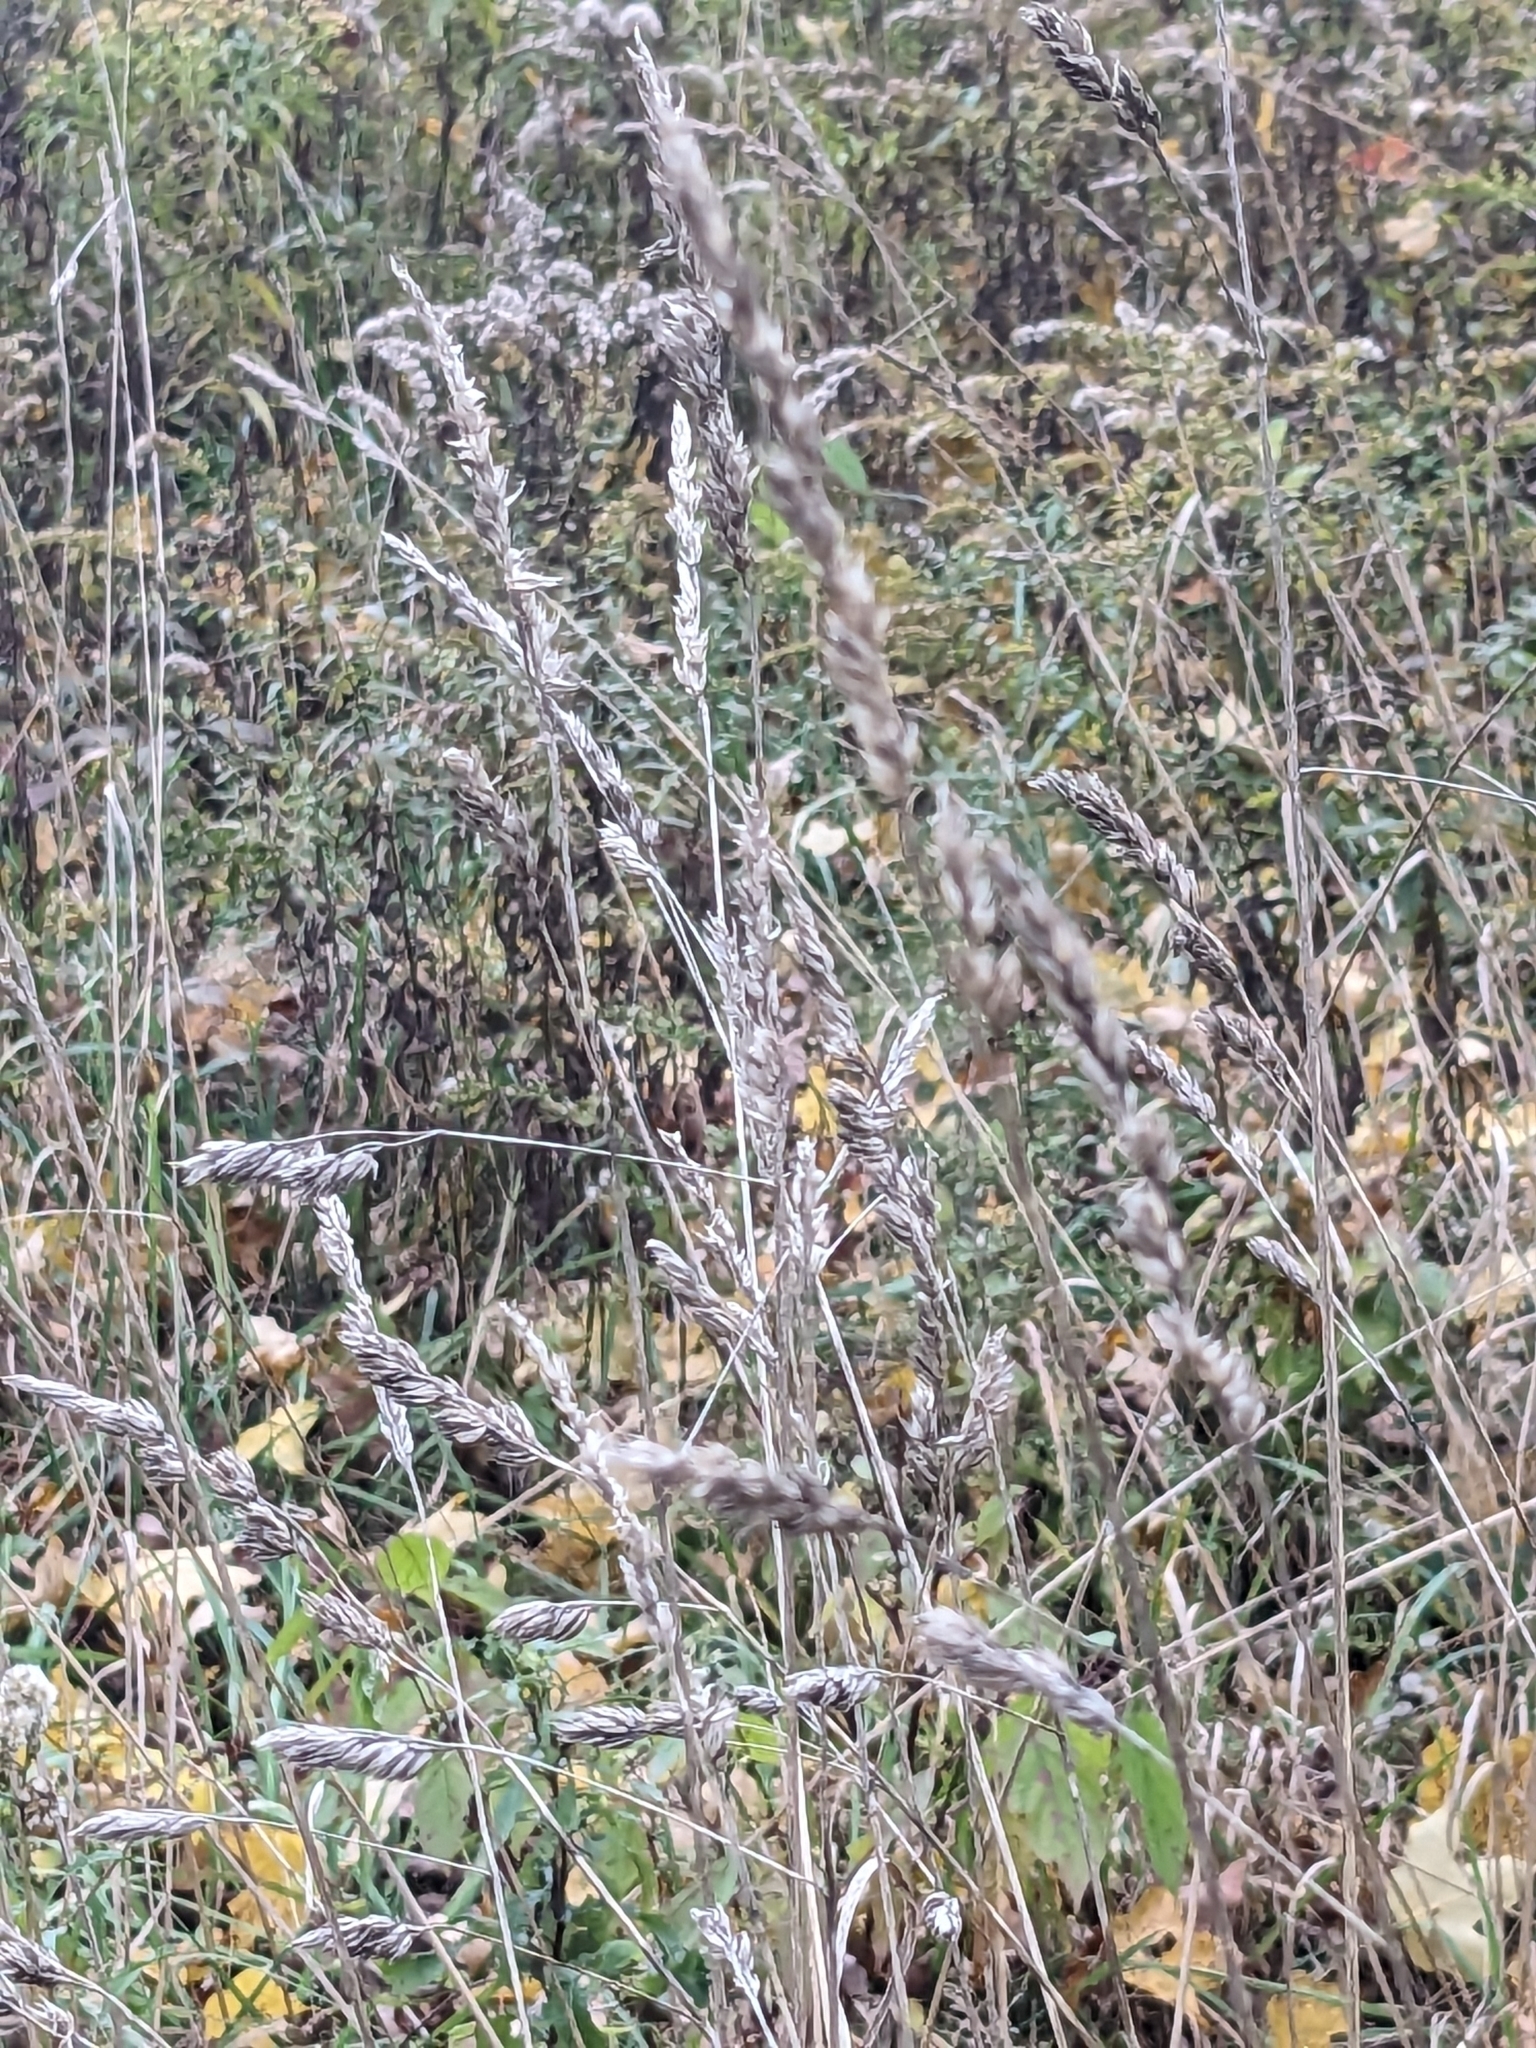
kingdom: Plantae
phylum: Tracheophyta
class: Liliopsida
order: Poales
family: Poaceae
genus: Dactylis
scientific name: Dactylis glomerata
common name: Orchardgrass
